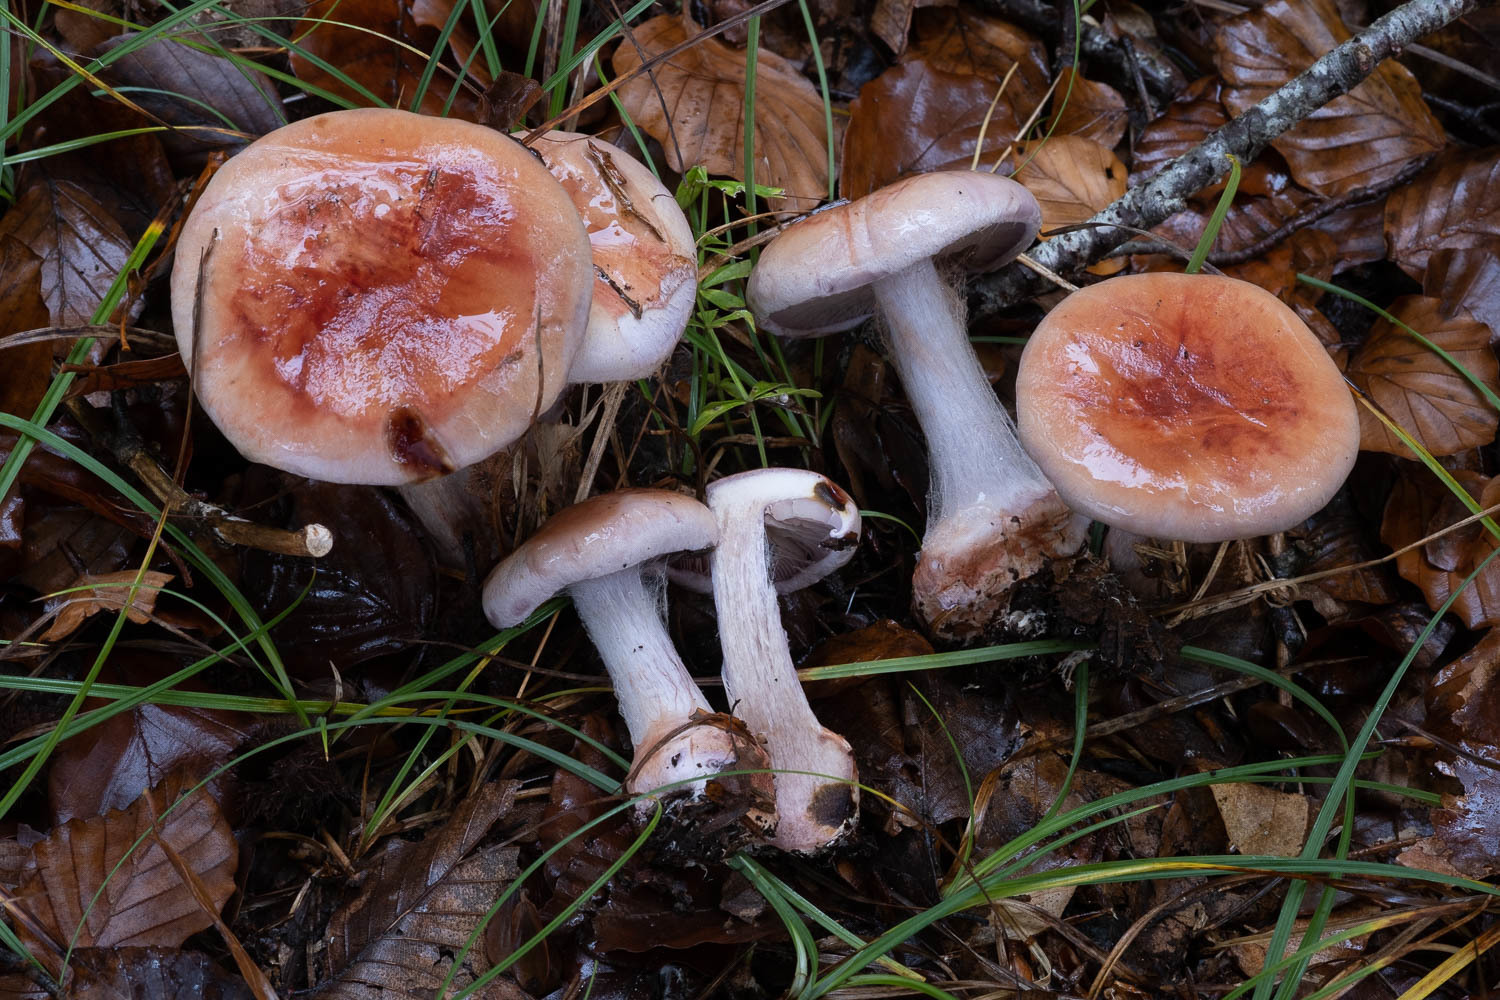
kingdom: Fungi
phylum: Basidiomycota
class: Agaricomycetes
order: Agaricales
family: Cortinariaceae
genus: Calonarius
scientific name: Calonarius rufo-olivaceus
